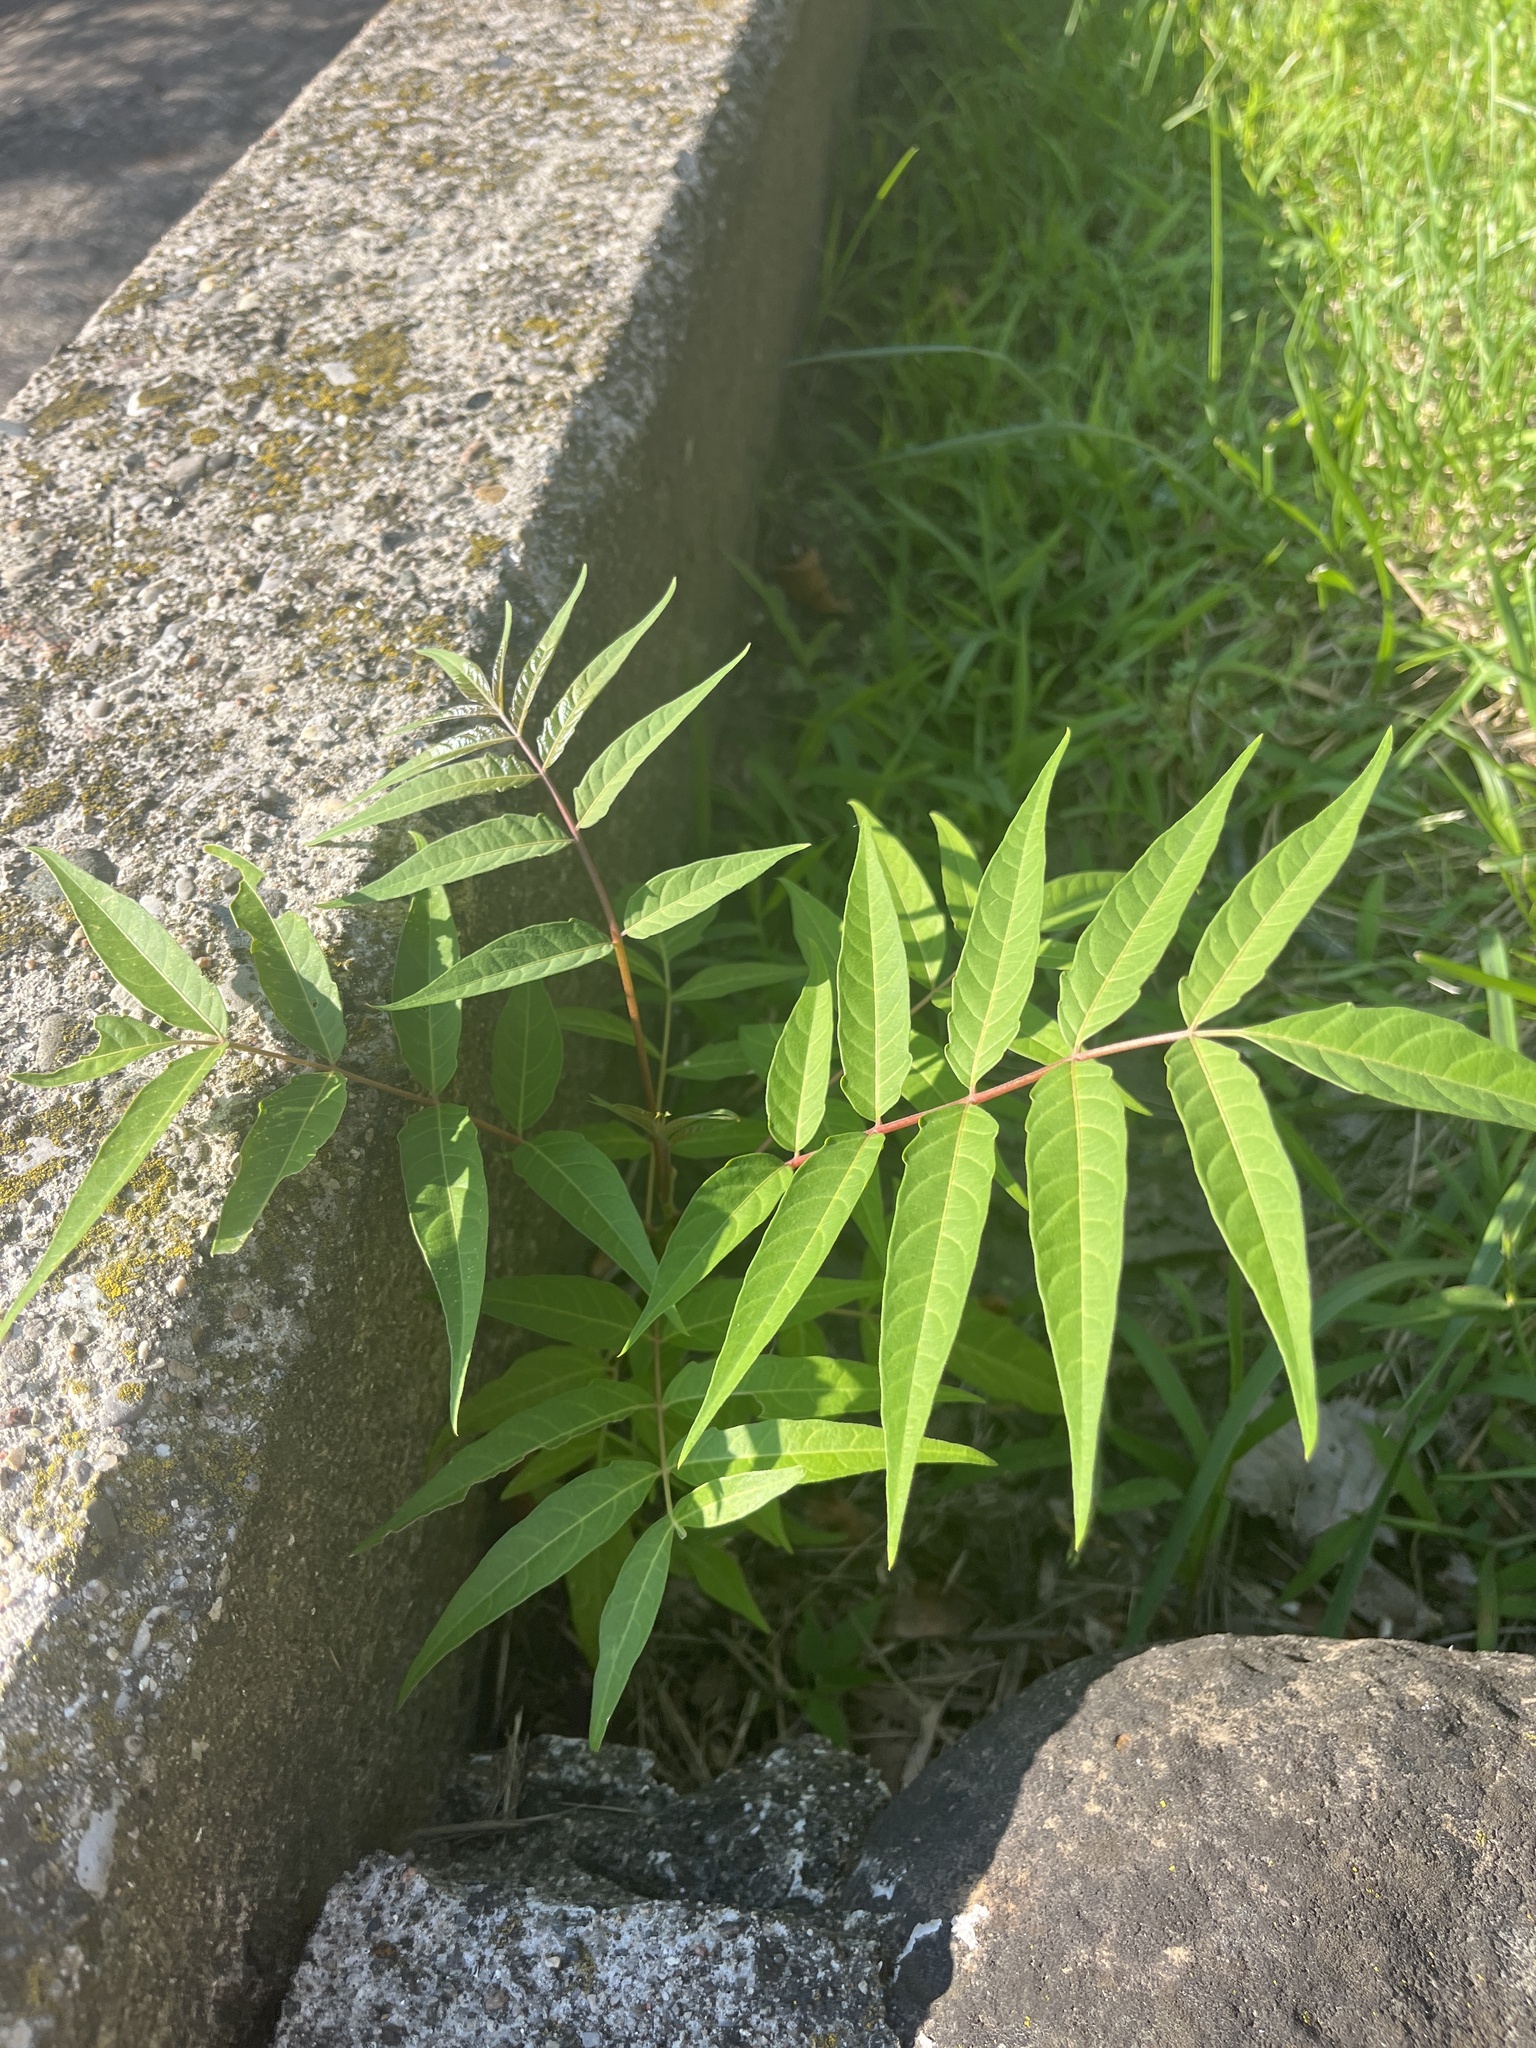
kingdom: Plantae
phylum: Tracheophyta
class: Magnoliopsida
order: Sapindales
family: Simaroubaceae
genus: Ailanthus
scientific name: Ailanthus altissima
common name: Tree-of-heaven
